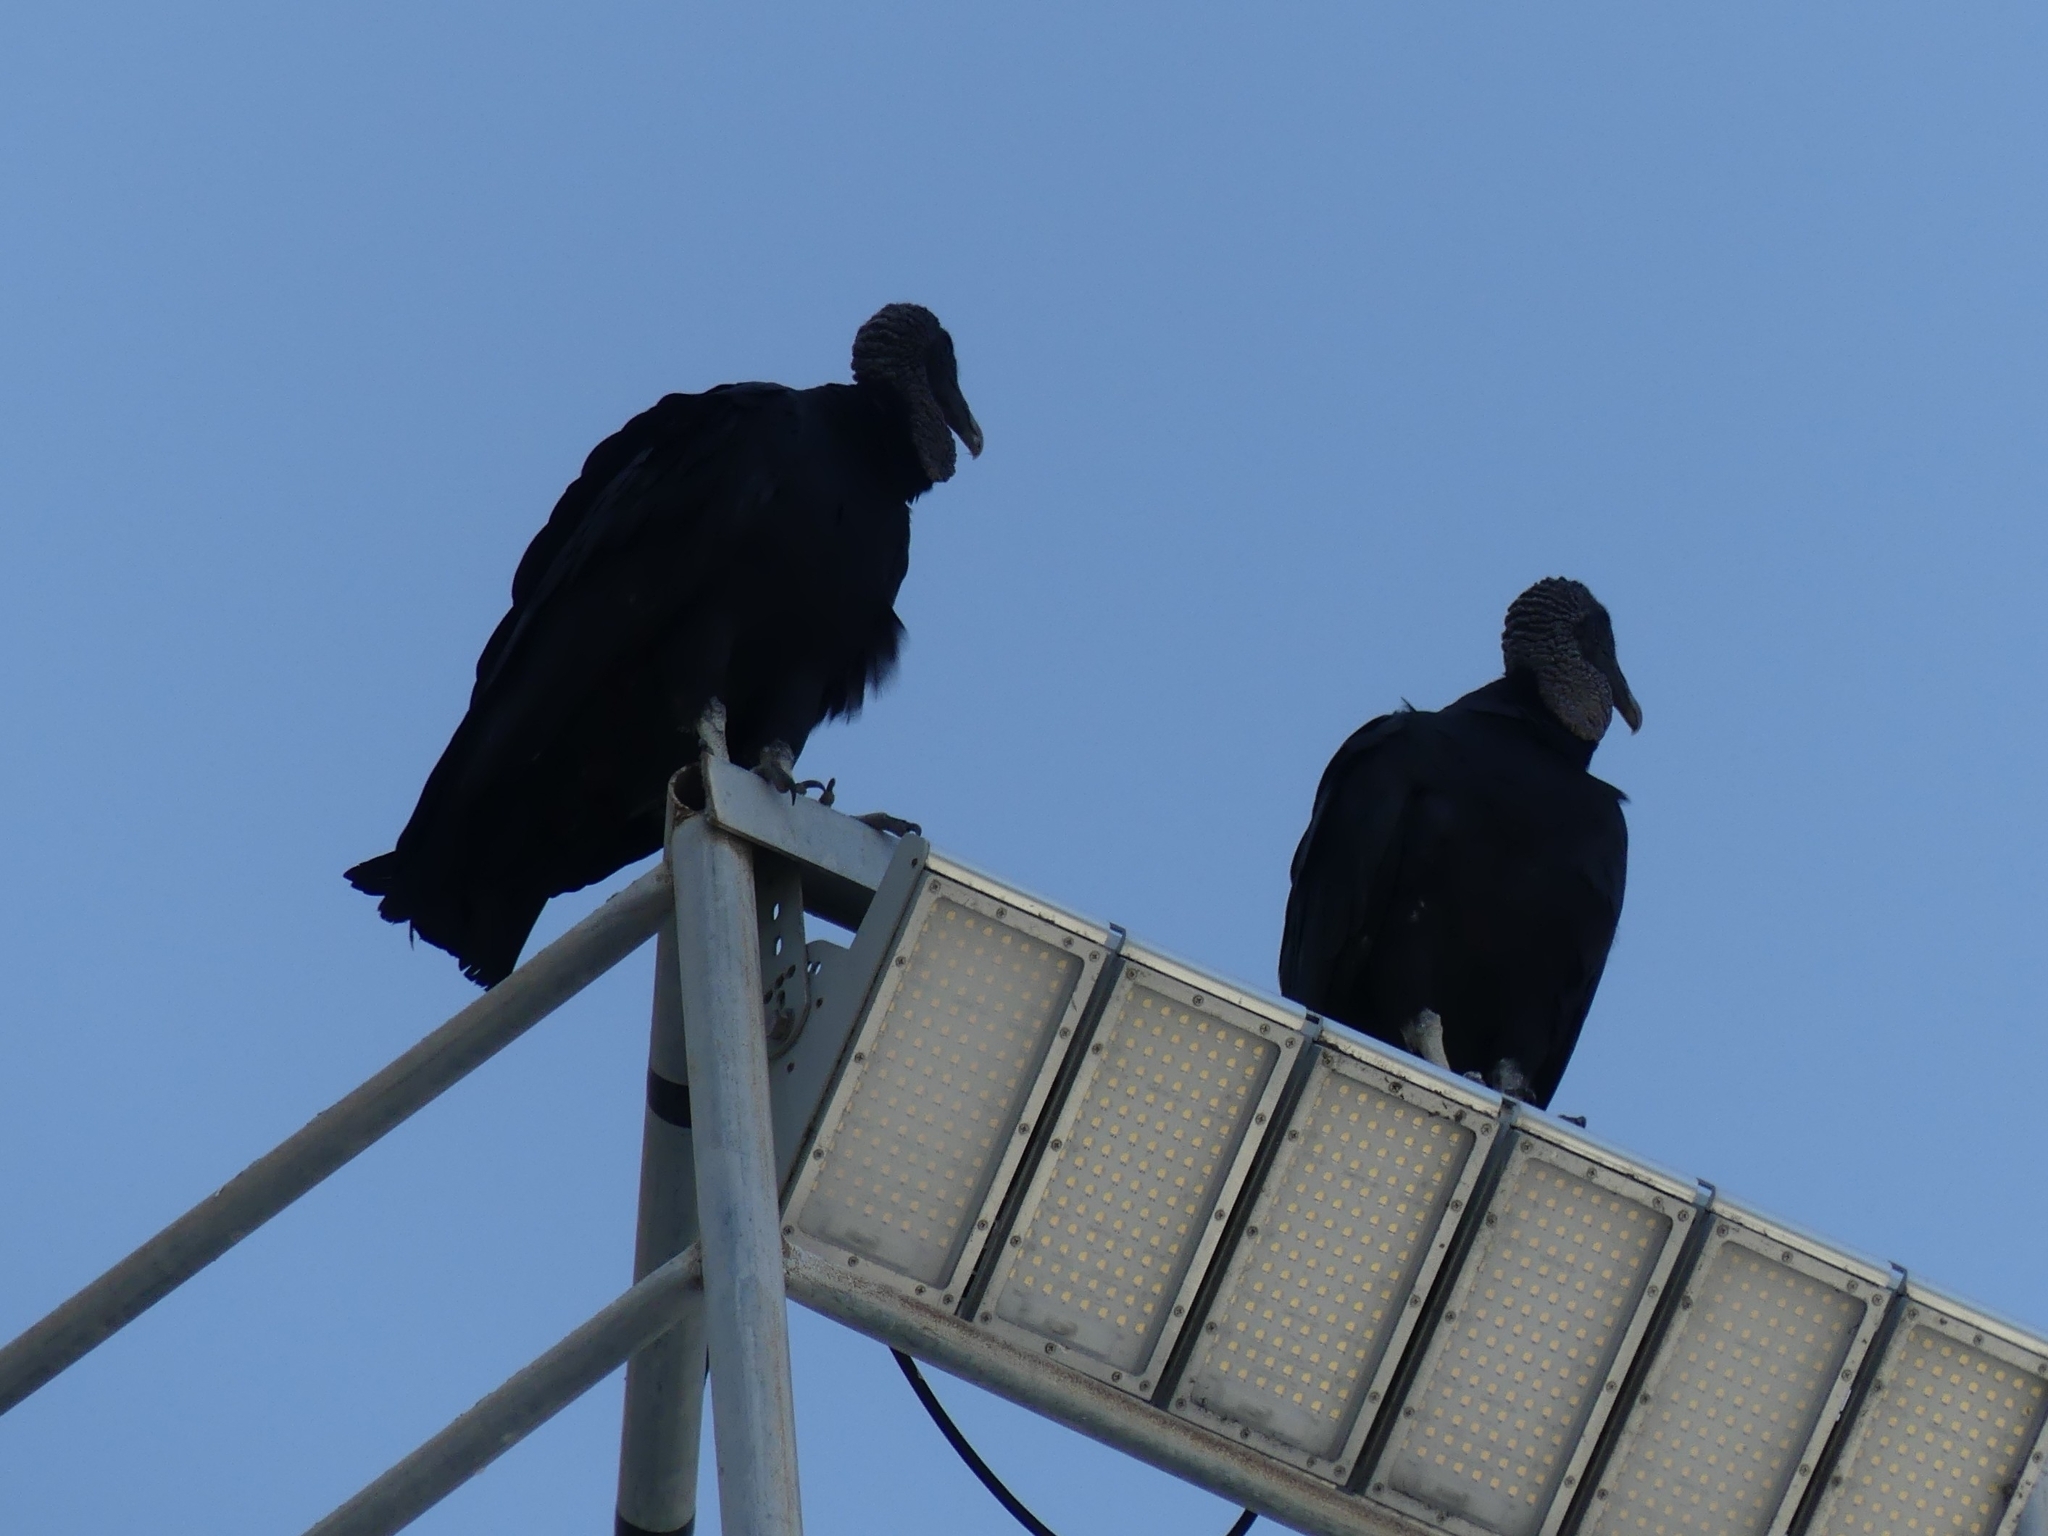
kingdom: Animalia
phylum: Chordata
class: Aves
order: Accipitriformes
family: Cathartidae
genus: Coragyps
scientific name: Coragyps atratus
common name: Black vulture
